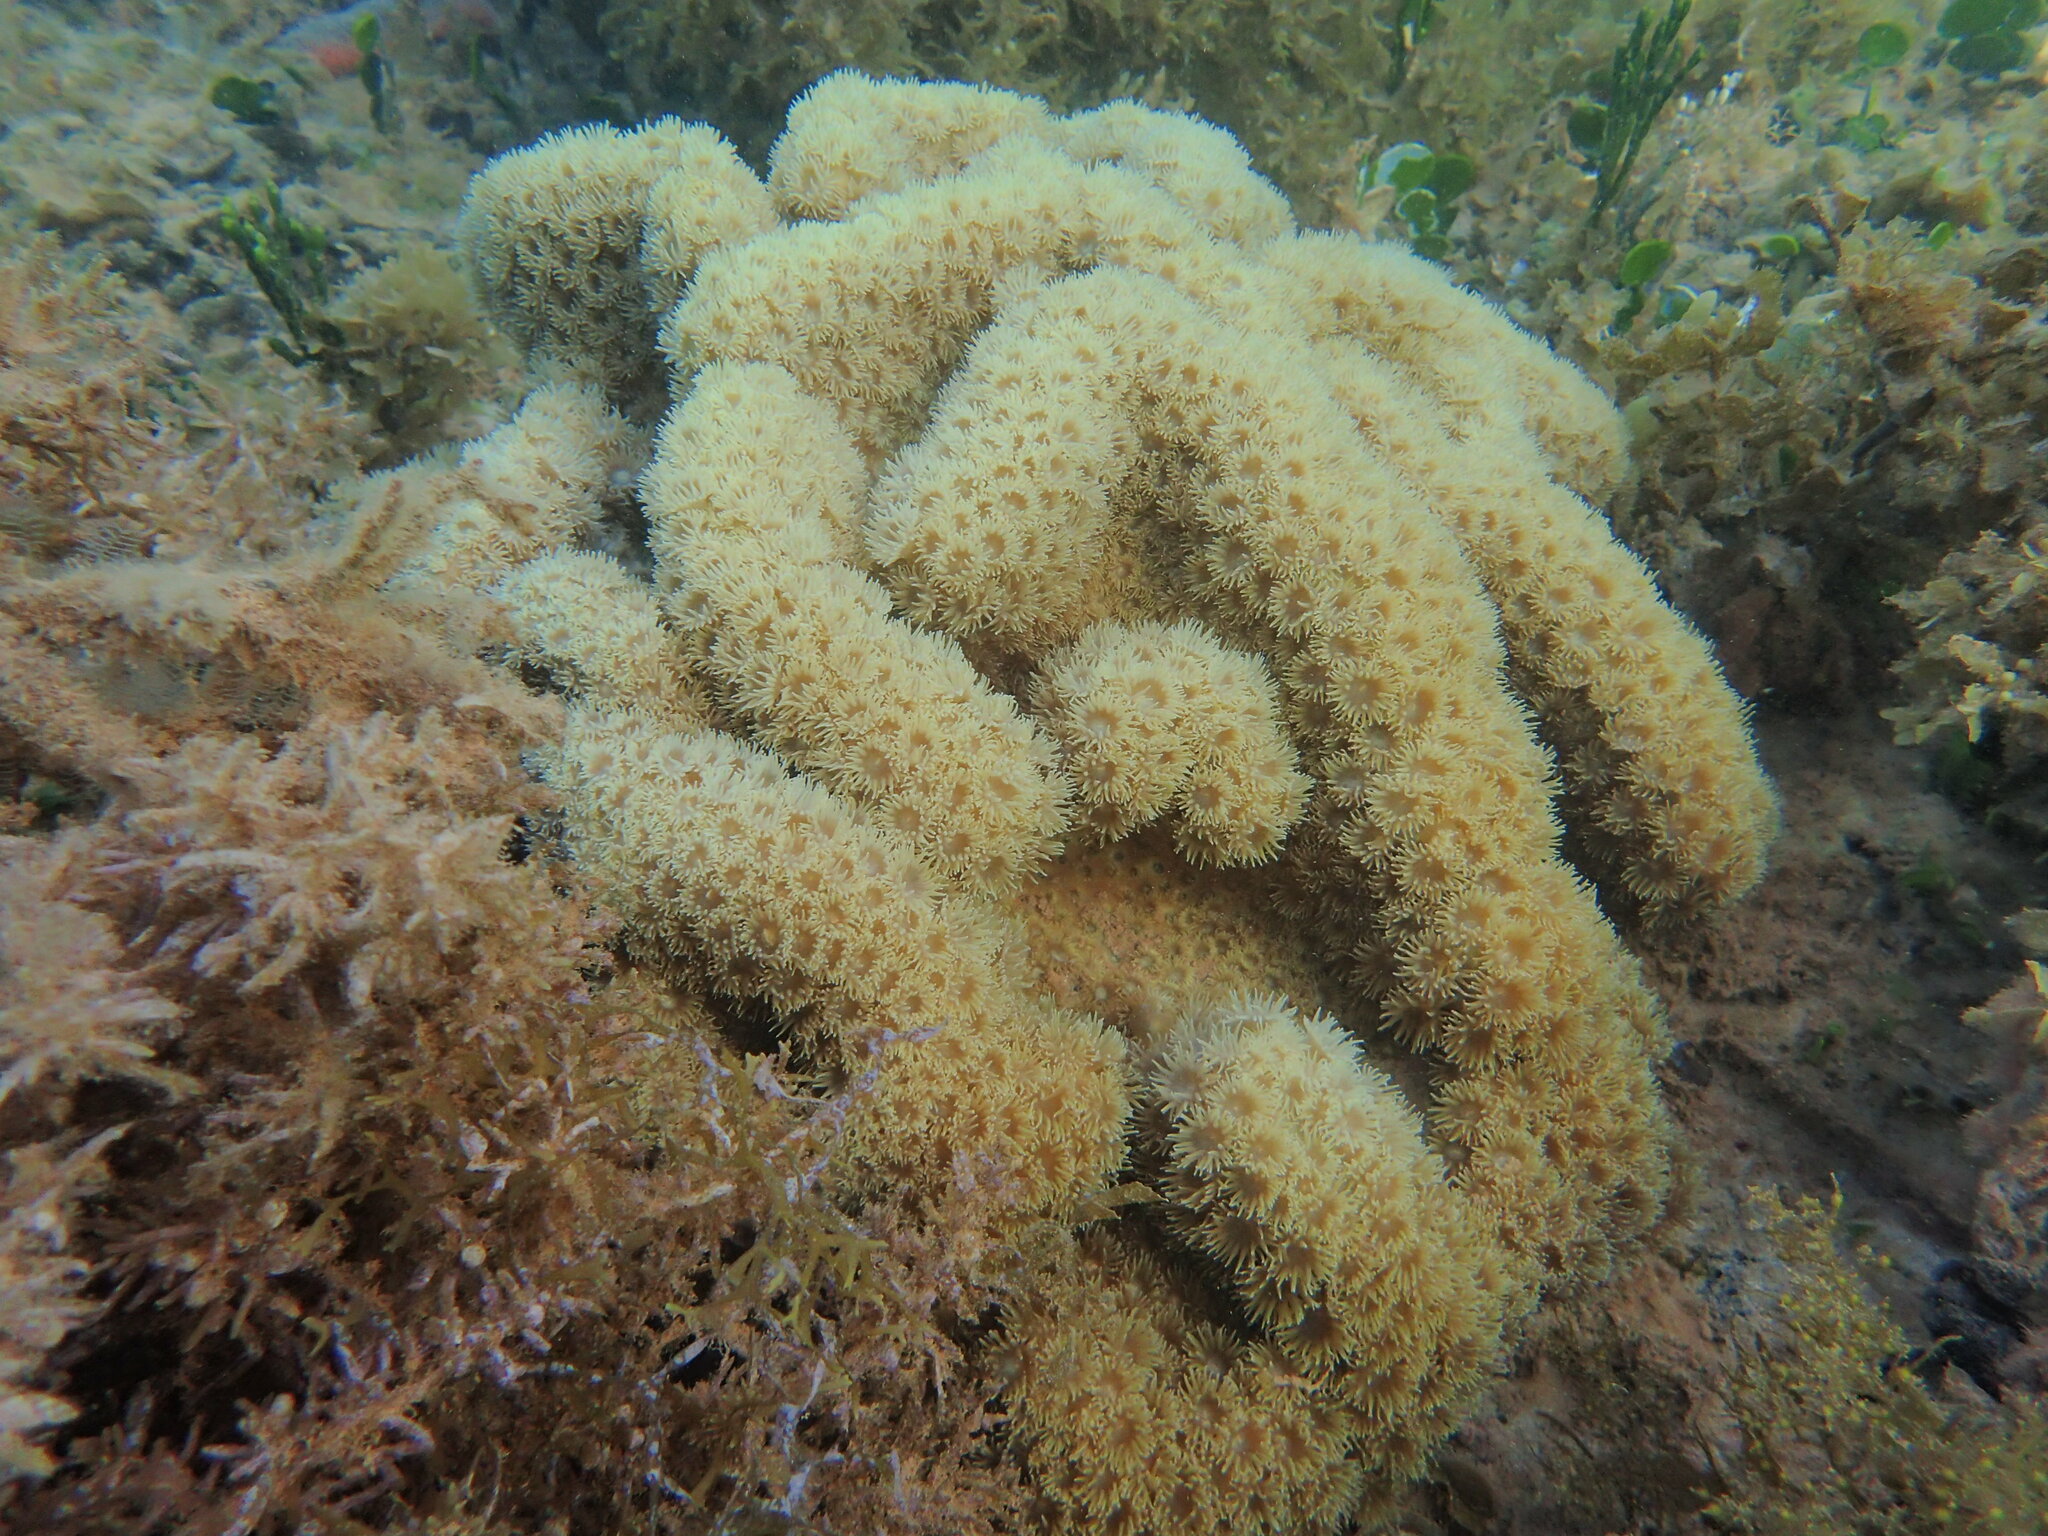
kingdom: Animalia
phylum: Cnidaria
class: Anthozoa
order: Scleractinia
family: Dendrophylliidae
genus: Duncanopsammia
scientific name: Duncanopsammia peltata
